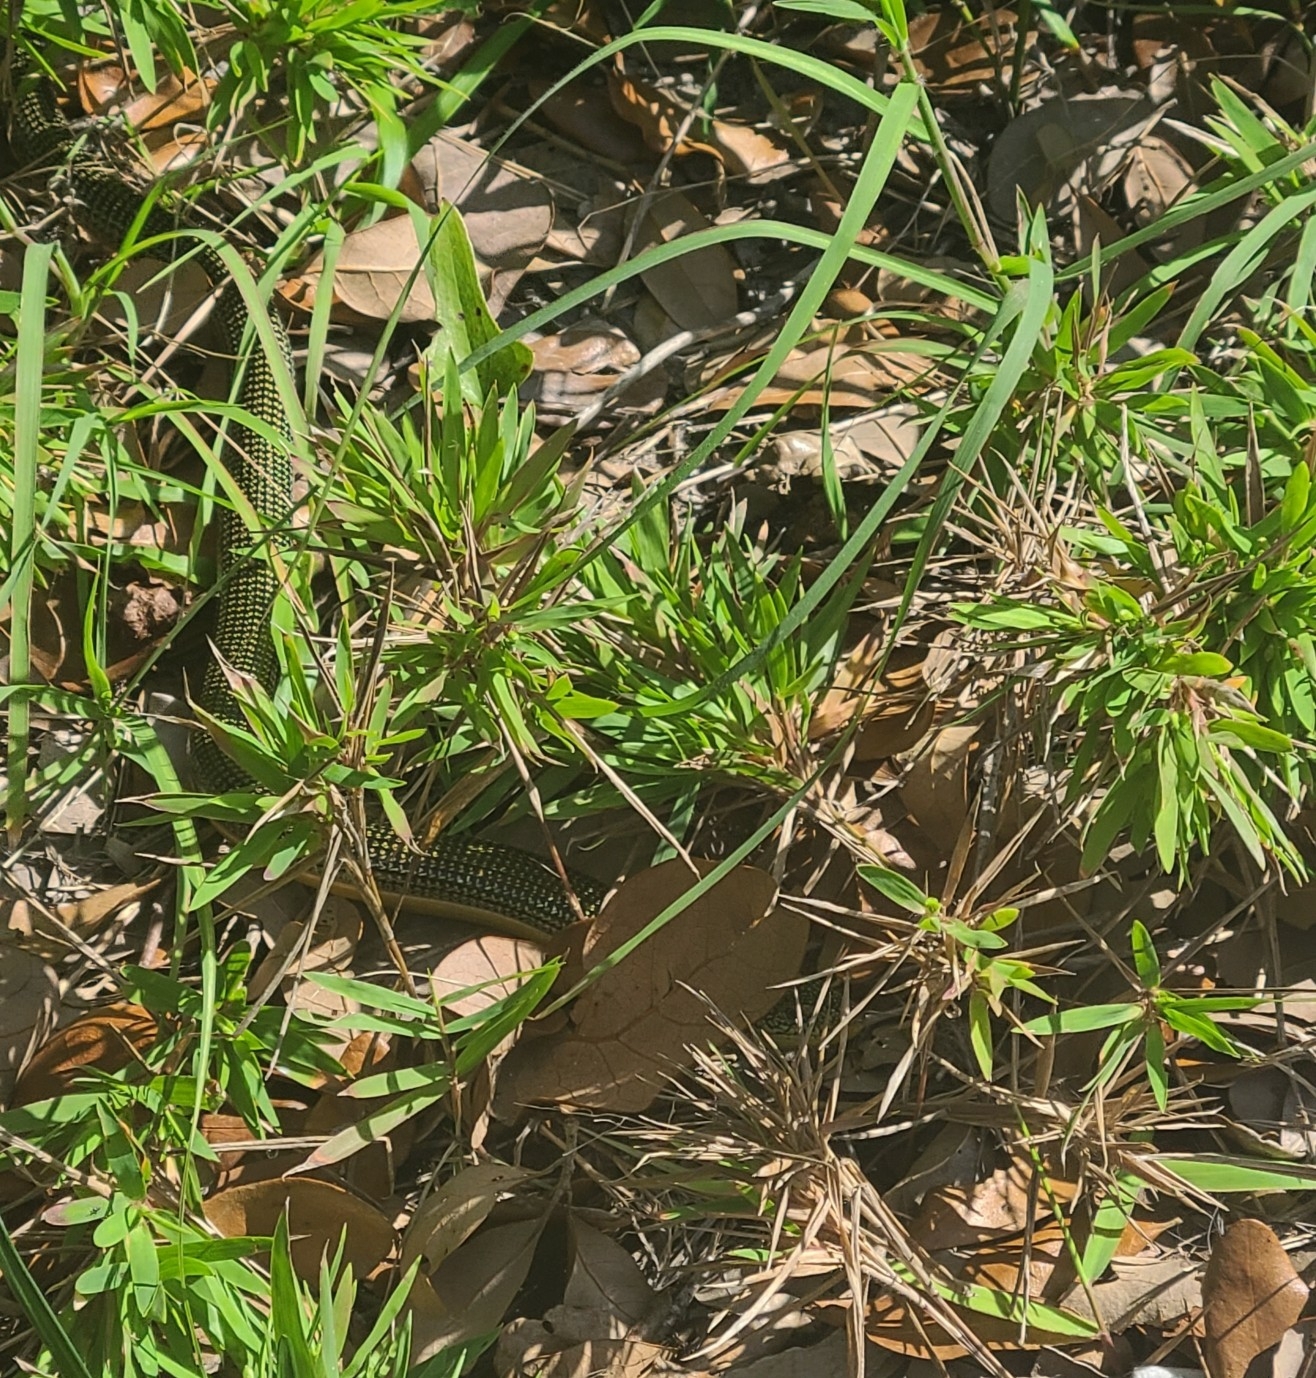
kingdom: Animalia
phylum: Chordata
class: Squamata
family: Anguidae
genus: Ophisaurus
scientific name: Ophisaurus ventralis
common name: Eastern glass lizard
